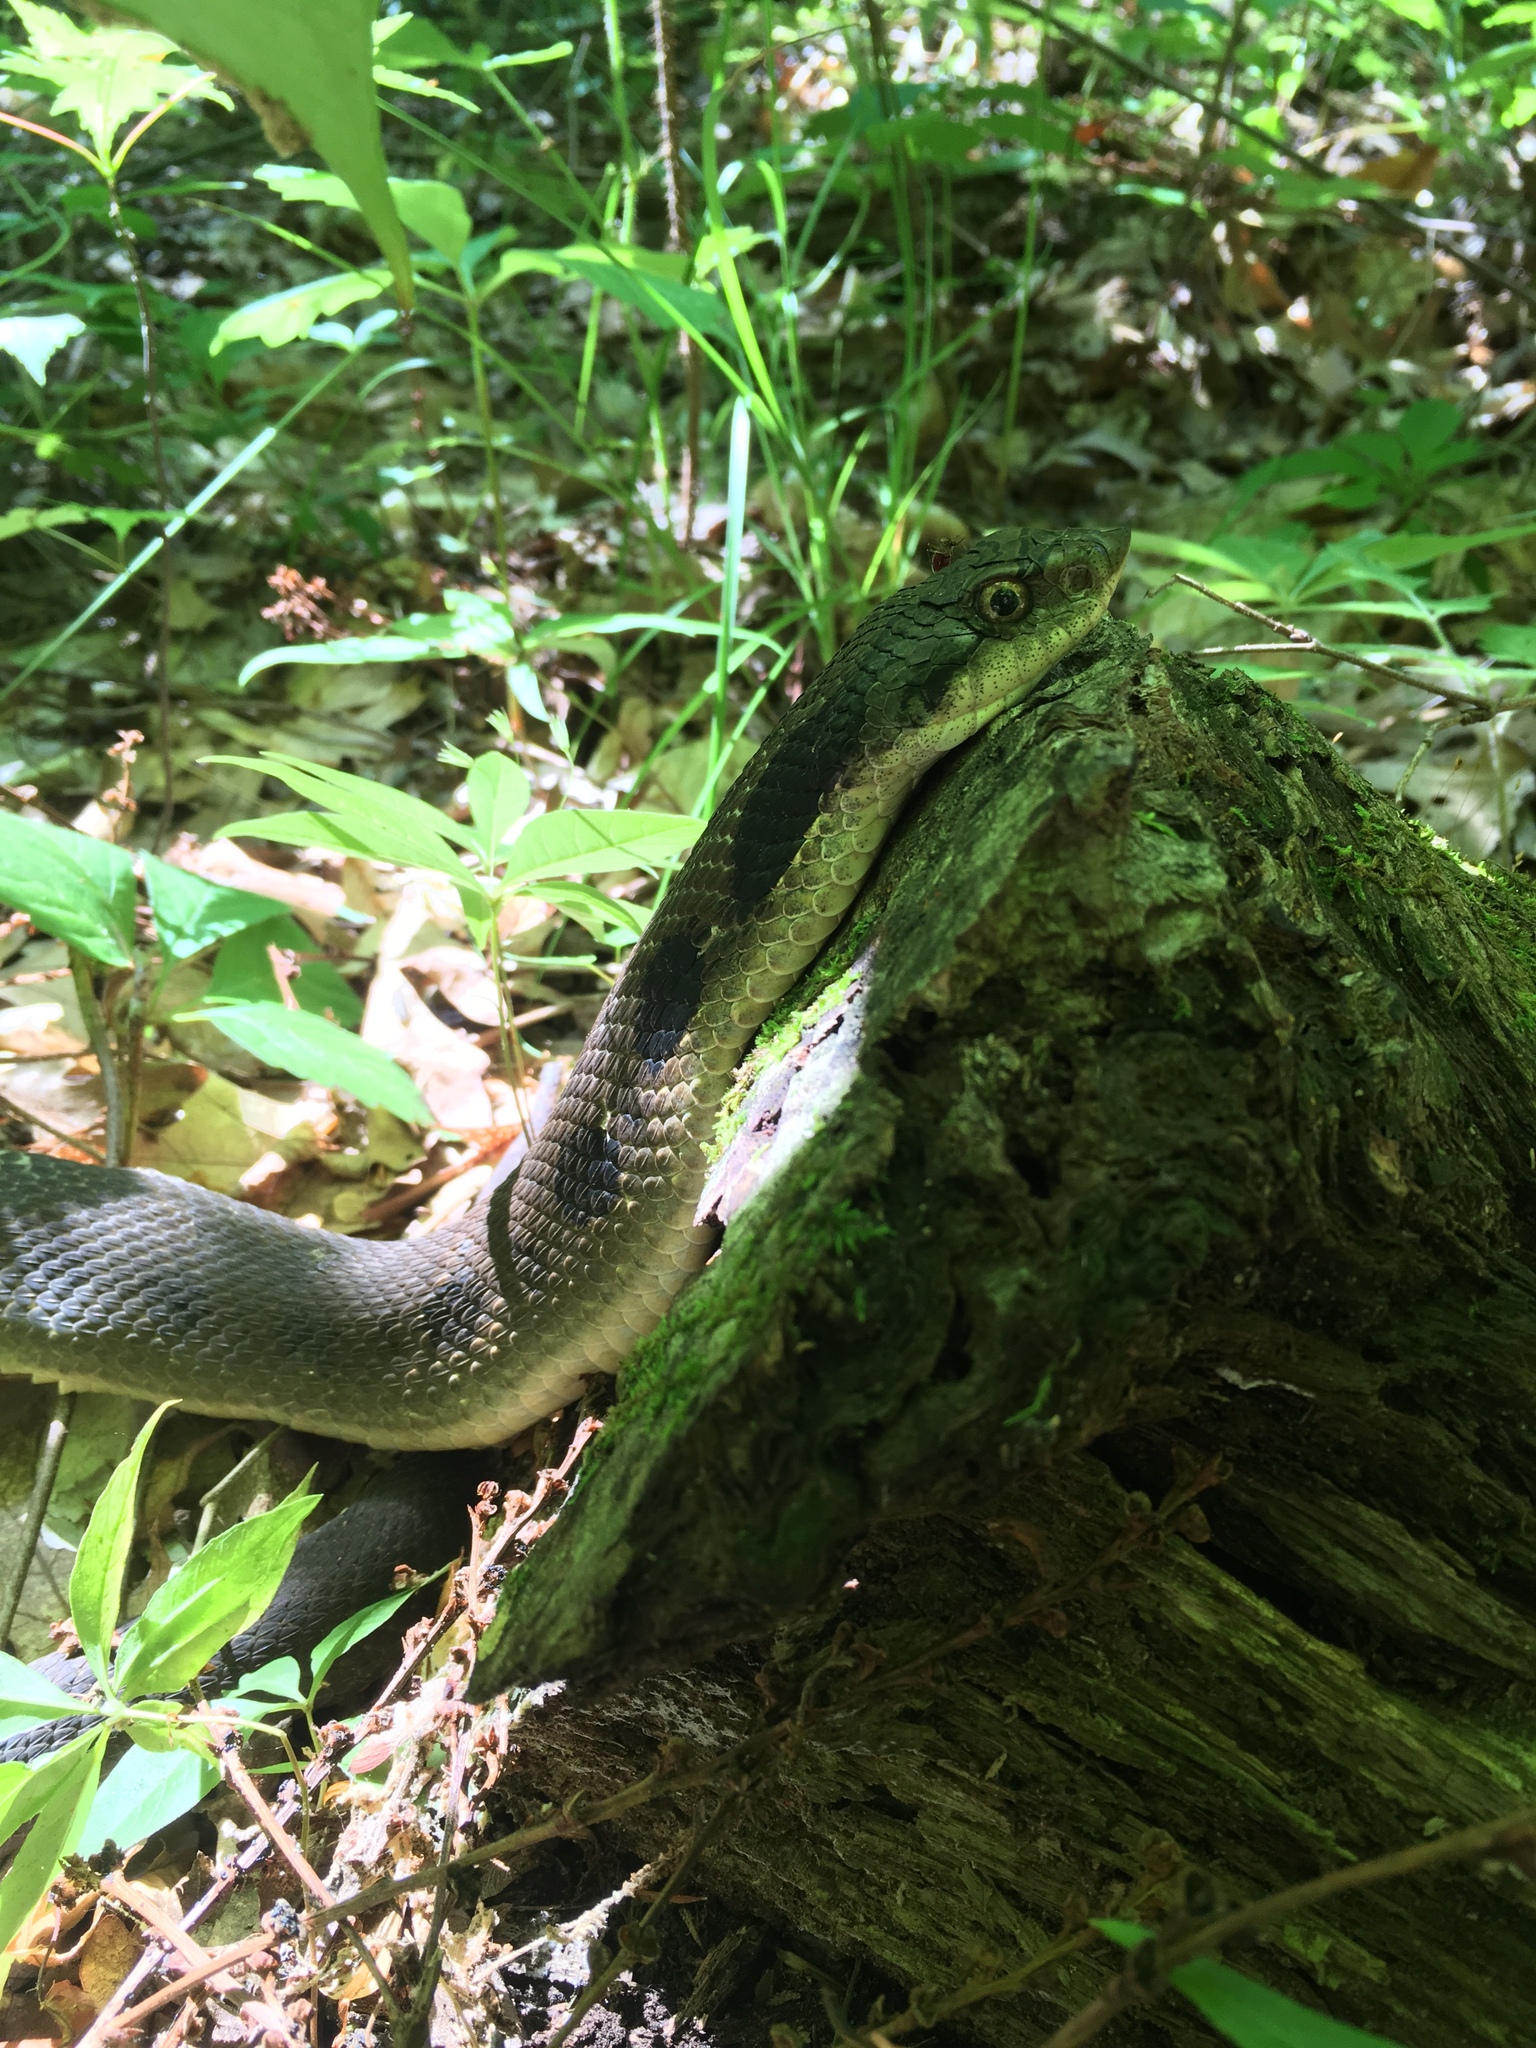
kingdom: Animalia
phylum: Chordata
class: Squamata
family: Colubridae
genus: Heterodon
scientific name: Heterodon platirhinos
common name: Eastern hognose snake
